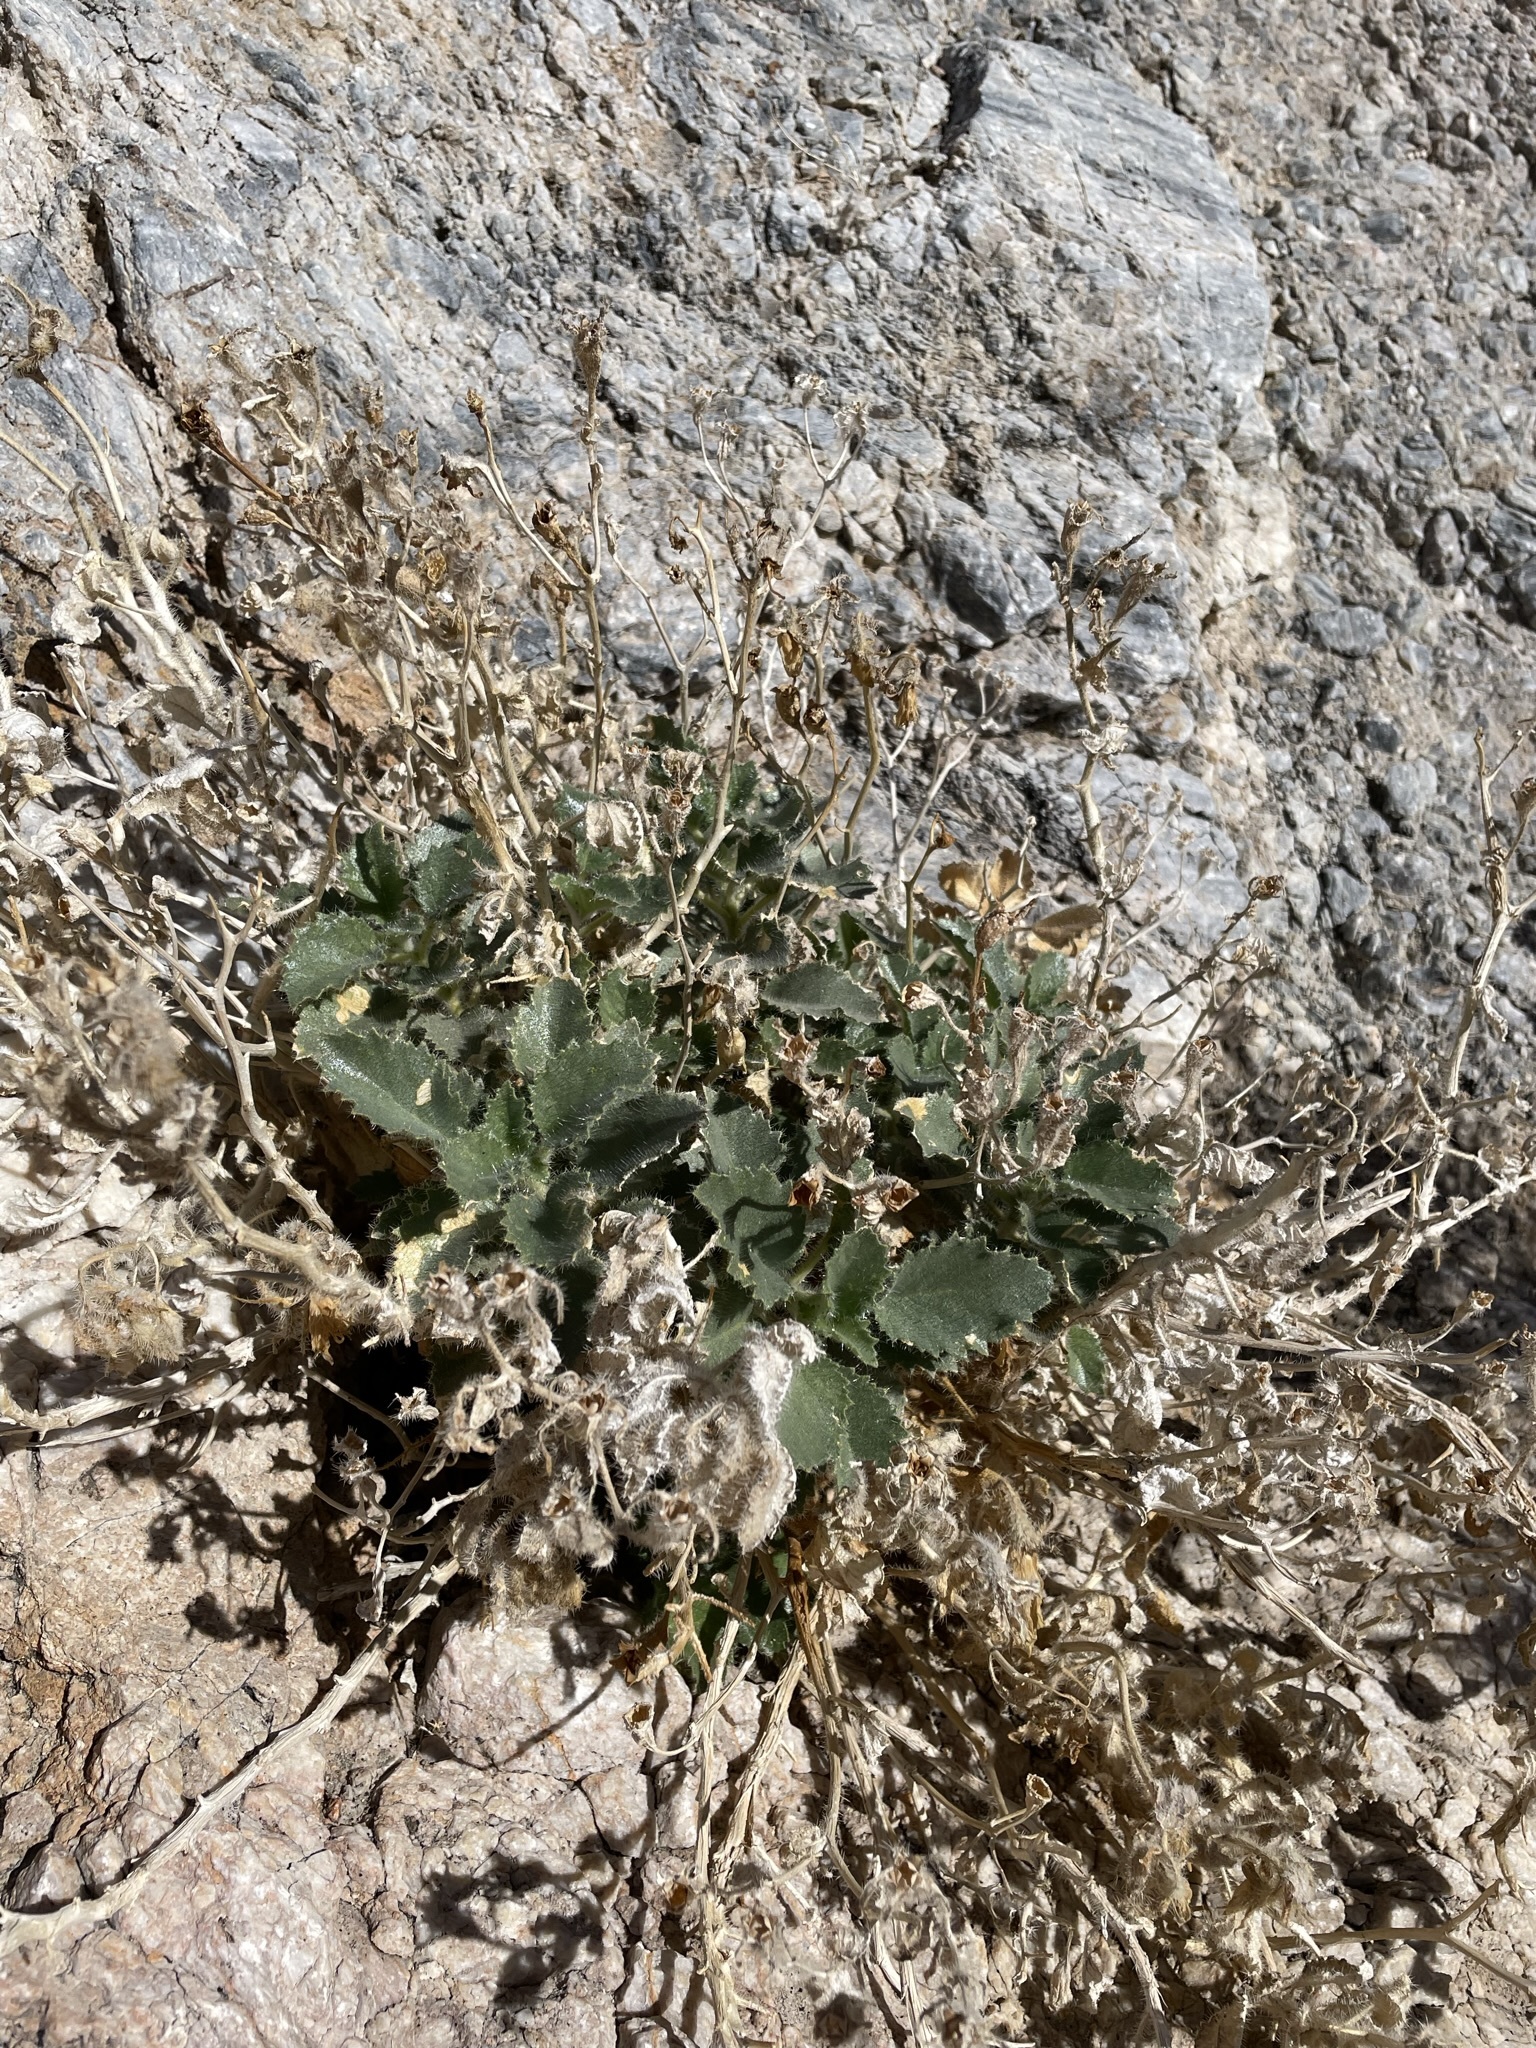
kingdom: Plantae
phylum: Tracheophyta
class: Magnoliopsida
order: Cornales
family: Loasaceae
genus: Eucnide
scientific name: Eucnide urens
